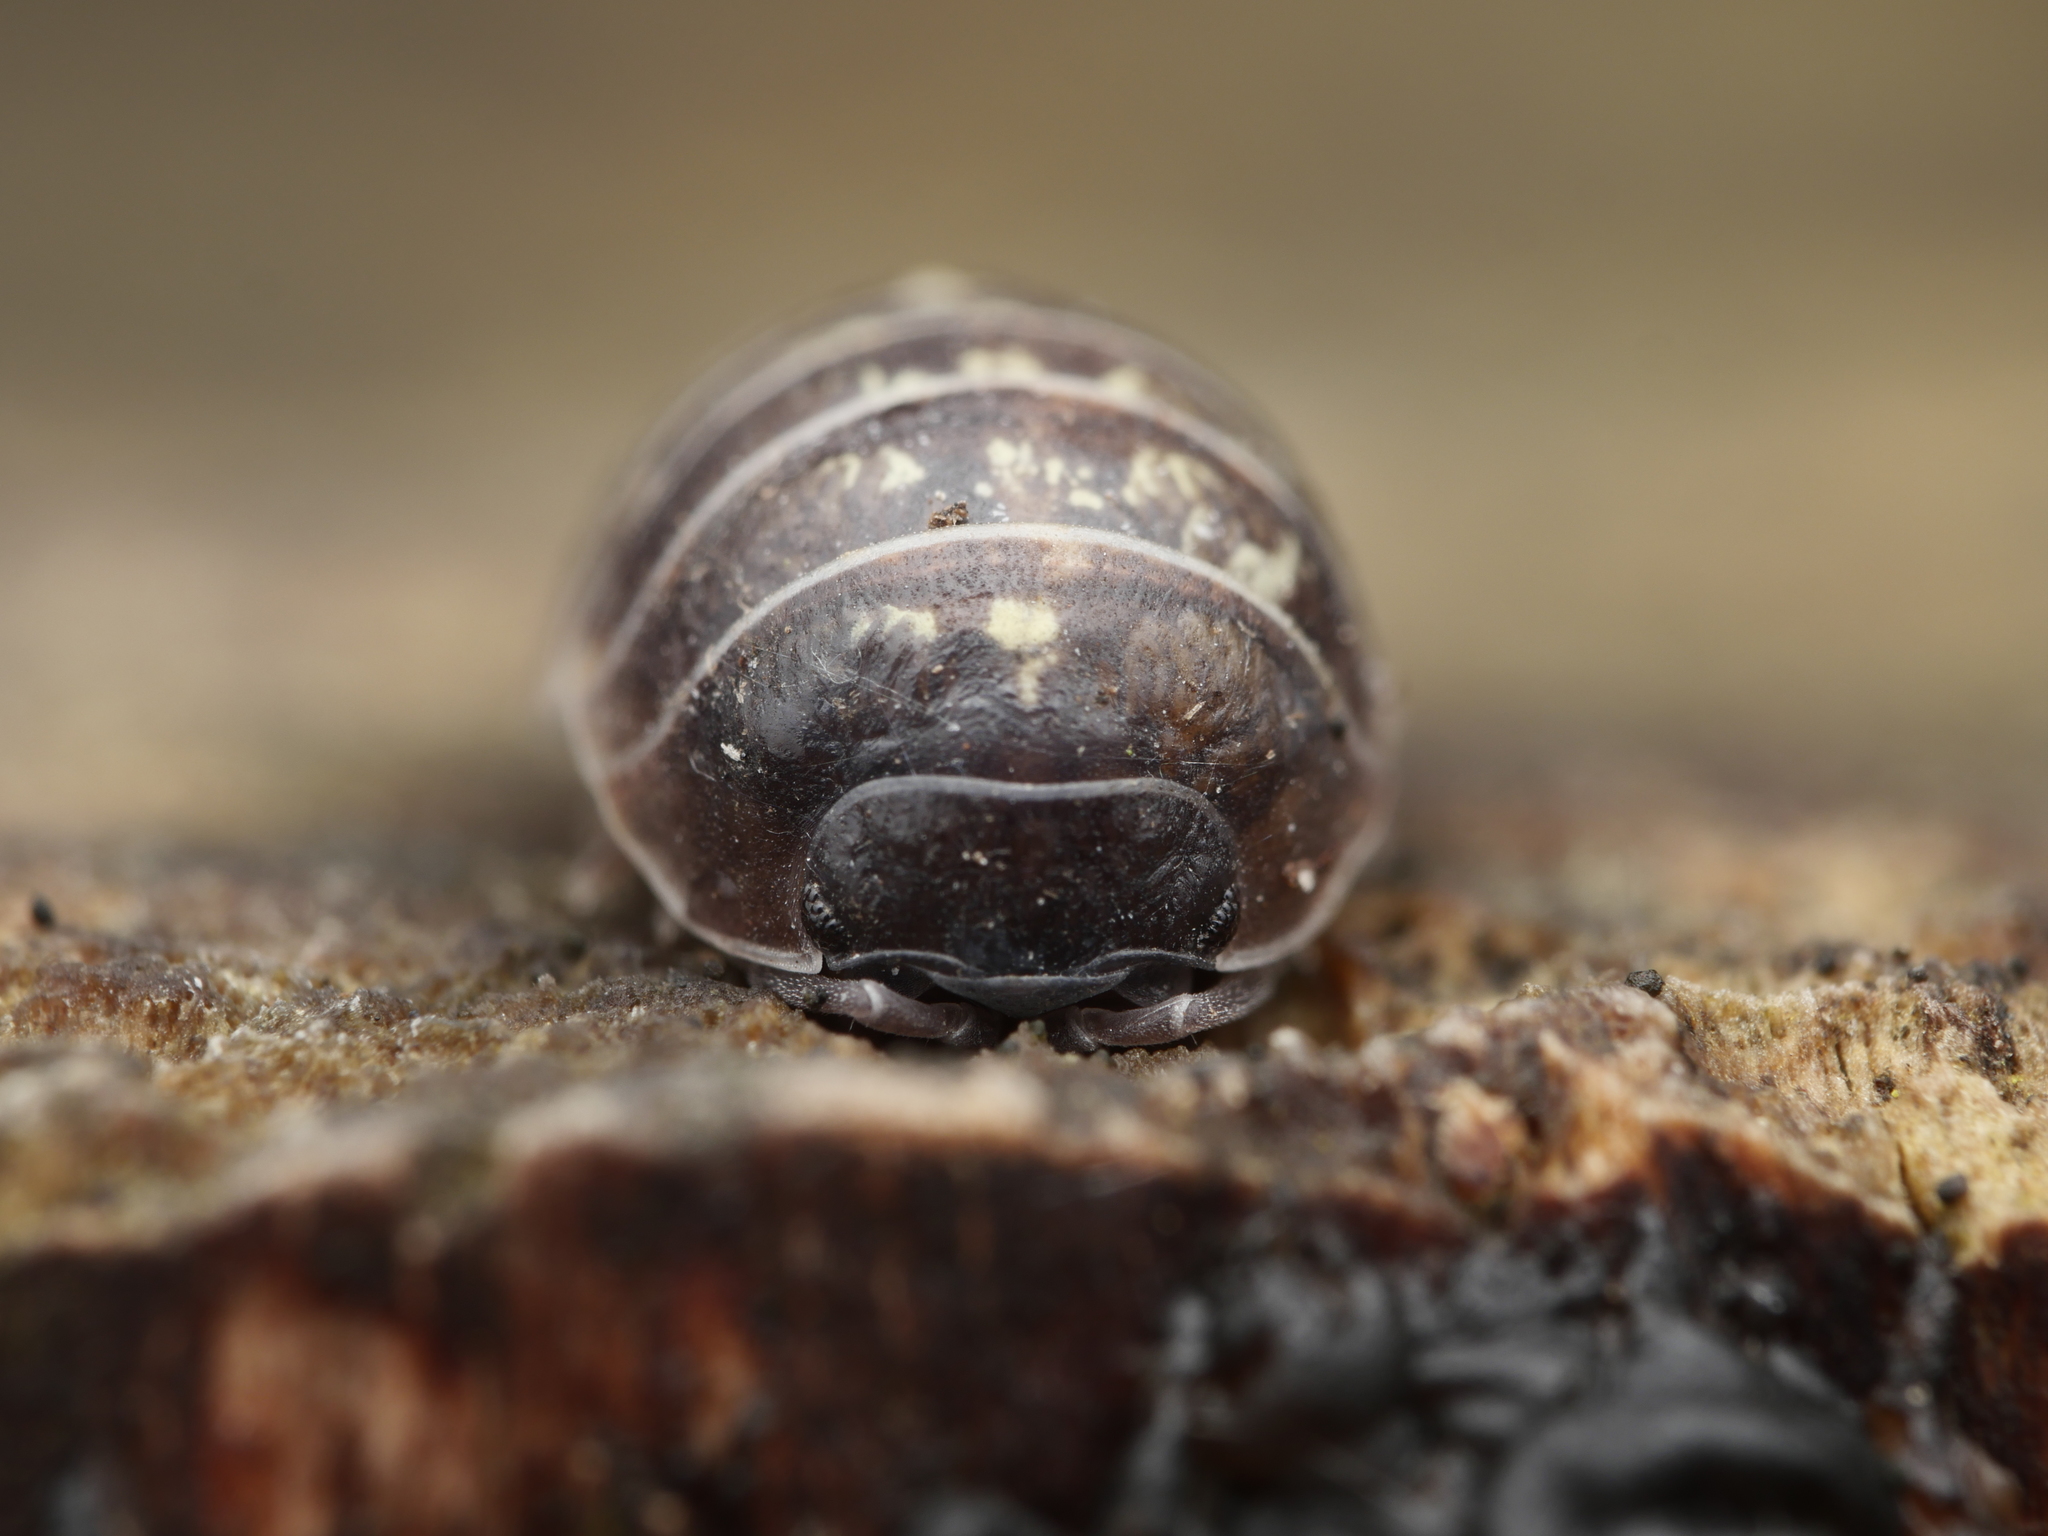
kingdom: Animalia
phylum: Arthropoda
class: Malacostraca
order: Isopoda
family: Armadillidiidae
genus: Armadillidium
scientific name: Armadillidium vulgare
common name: Common pill woodlouse
